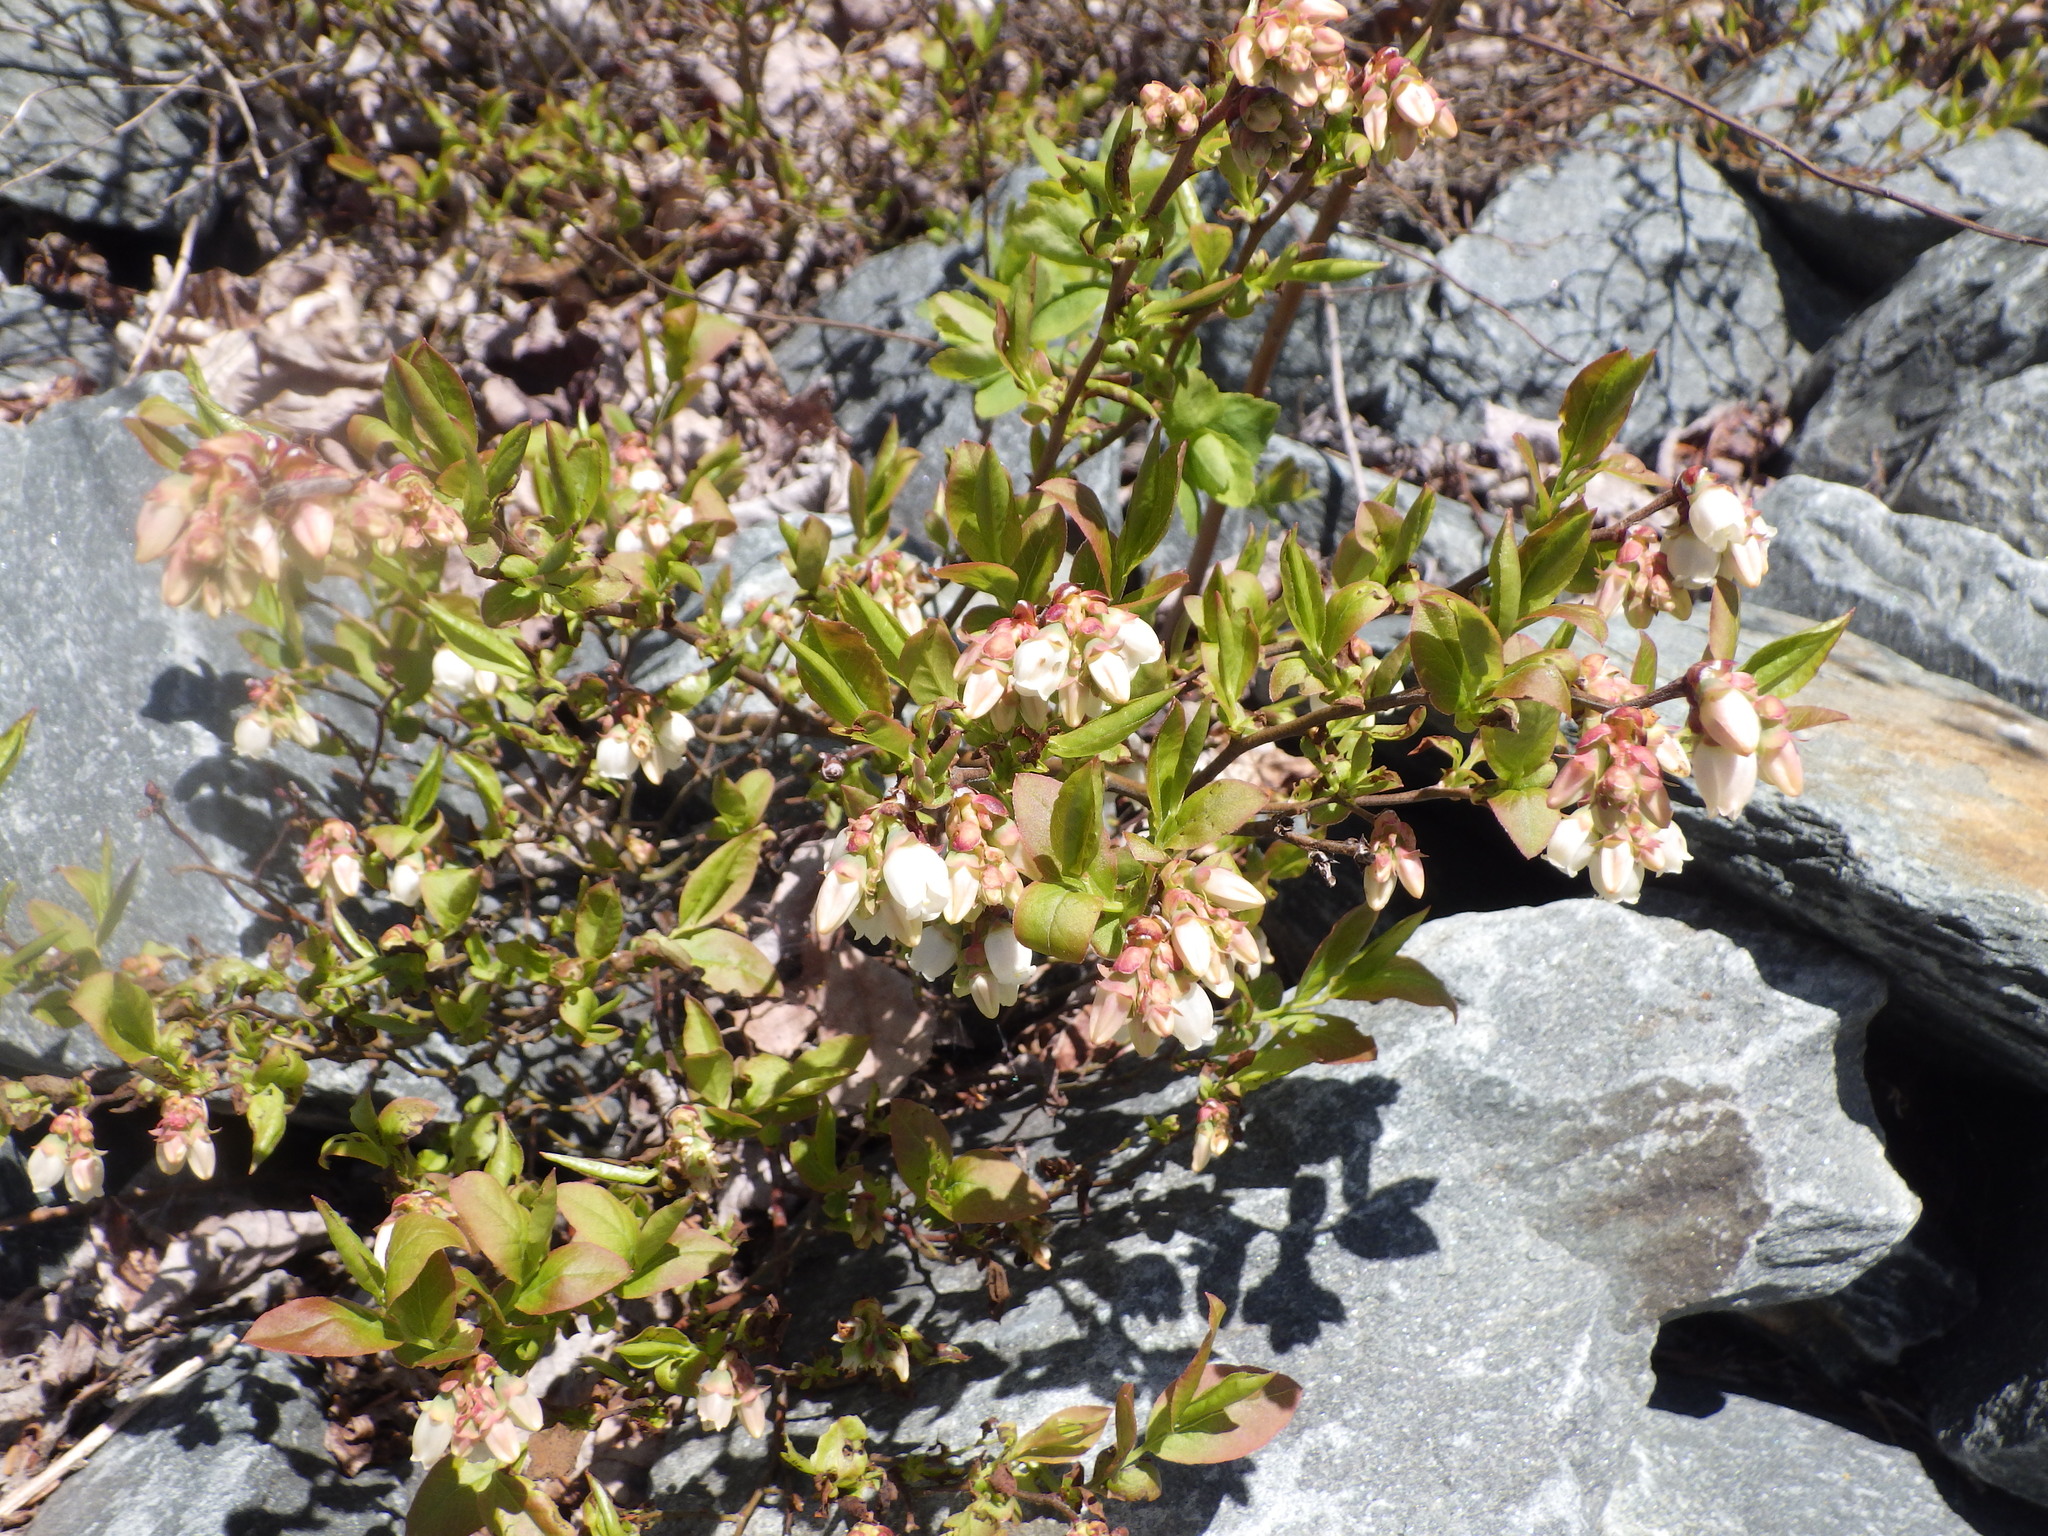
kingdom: Plantae
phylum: Tracheophyta
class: Magnoliopsida
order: Ericales
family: Ericaceae
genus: Vaccinium
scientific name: Vaccinium angustifolium
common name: Early lowbush blueberry
